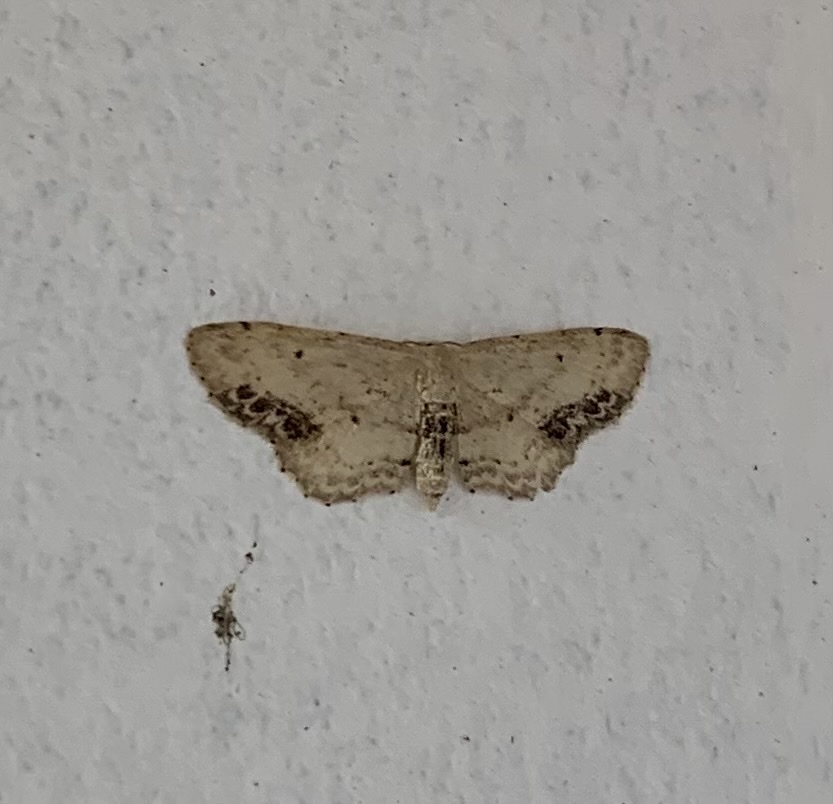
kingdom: Animalia
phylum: Arthropoda
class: Insecta
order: Lepidoptera
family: Geometridae
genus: Idaea
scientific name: Idaea dimidiata
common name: Single-dotted wave
